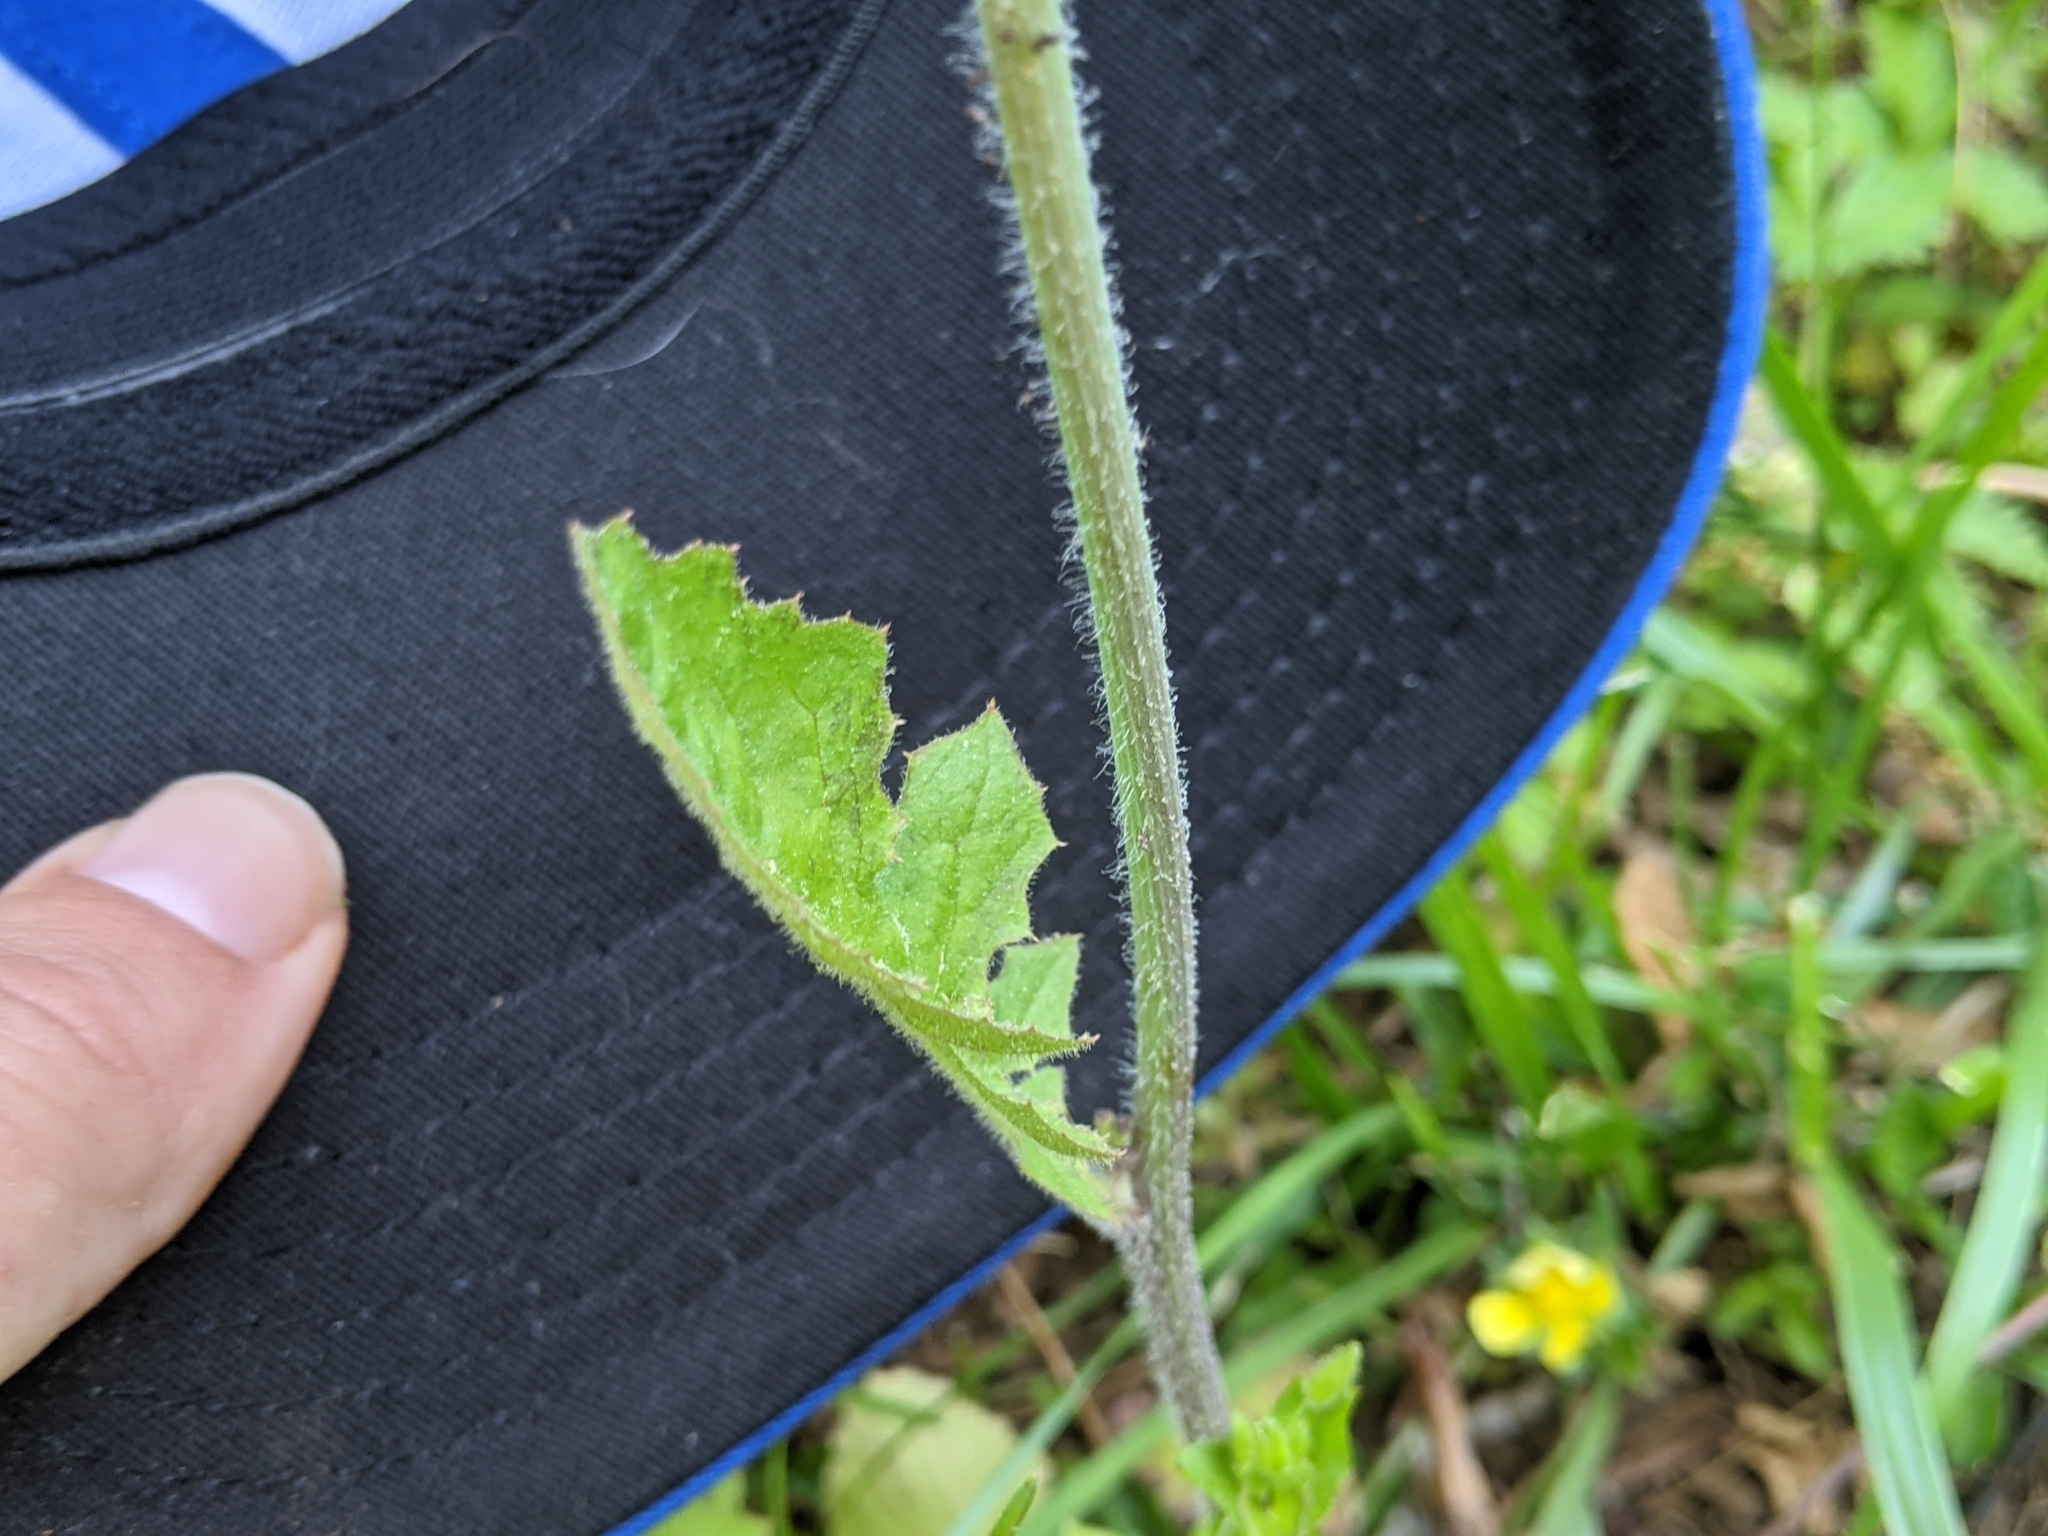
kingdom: Plantae
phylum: Tracheophyta
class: Magnoliopsida
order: Asterales
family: Asteraceae
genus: Youngia
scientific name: Youngia japonica
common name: Oriental false hawksbeard
